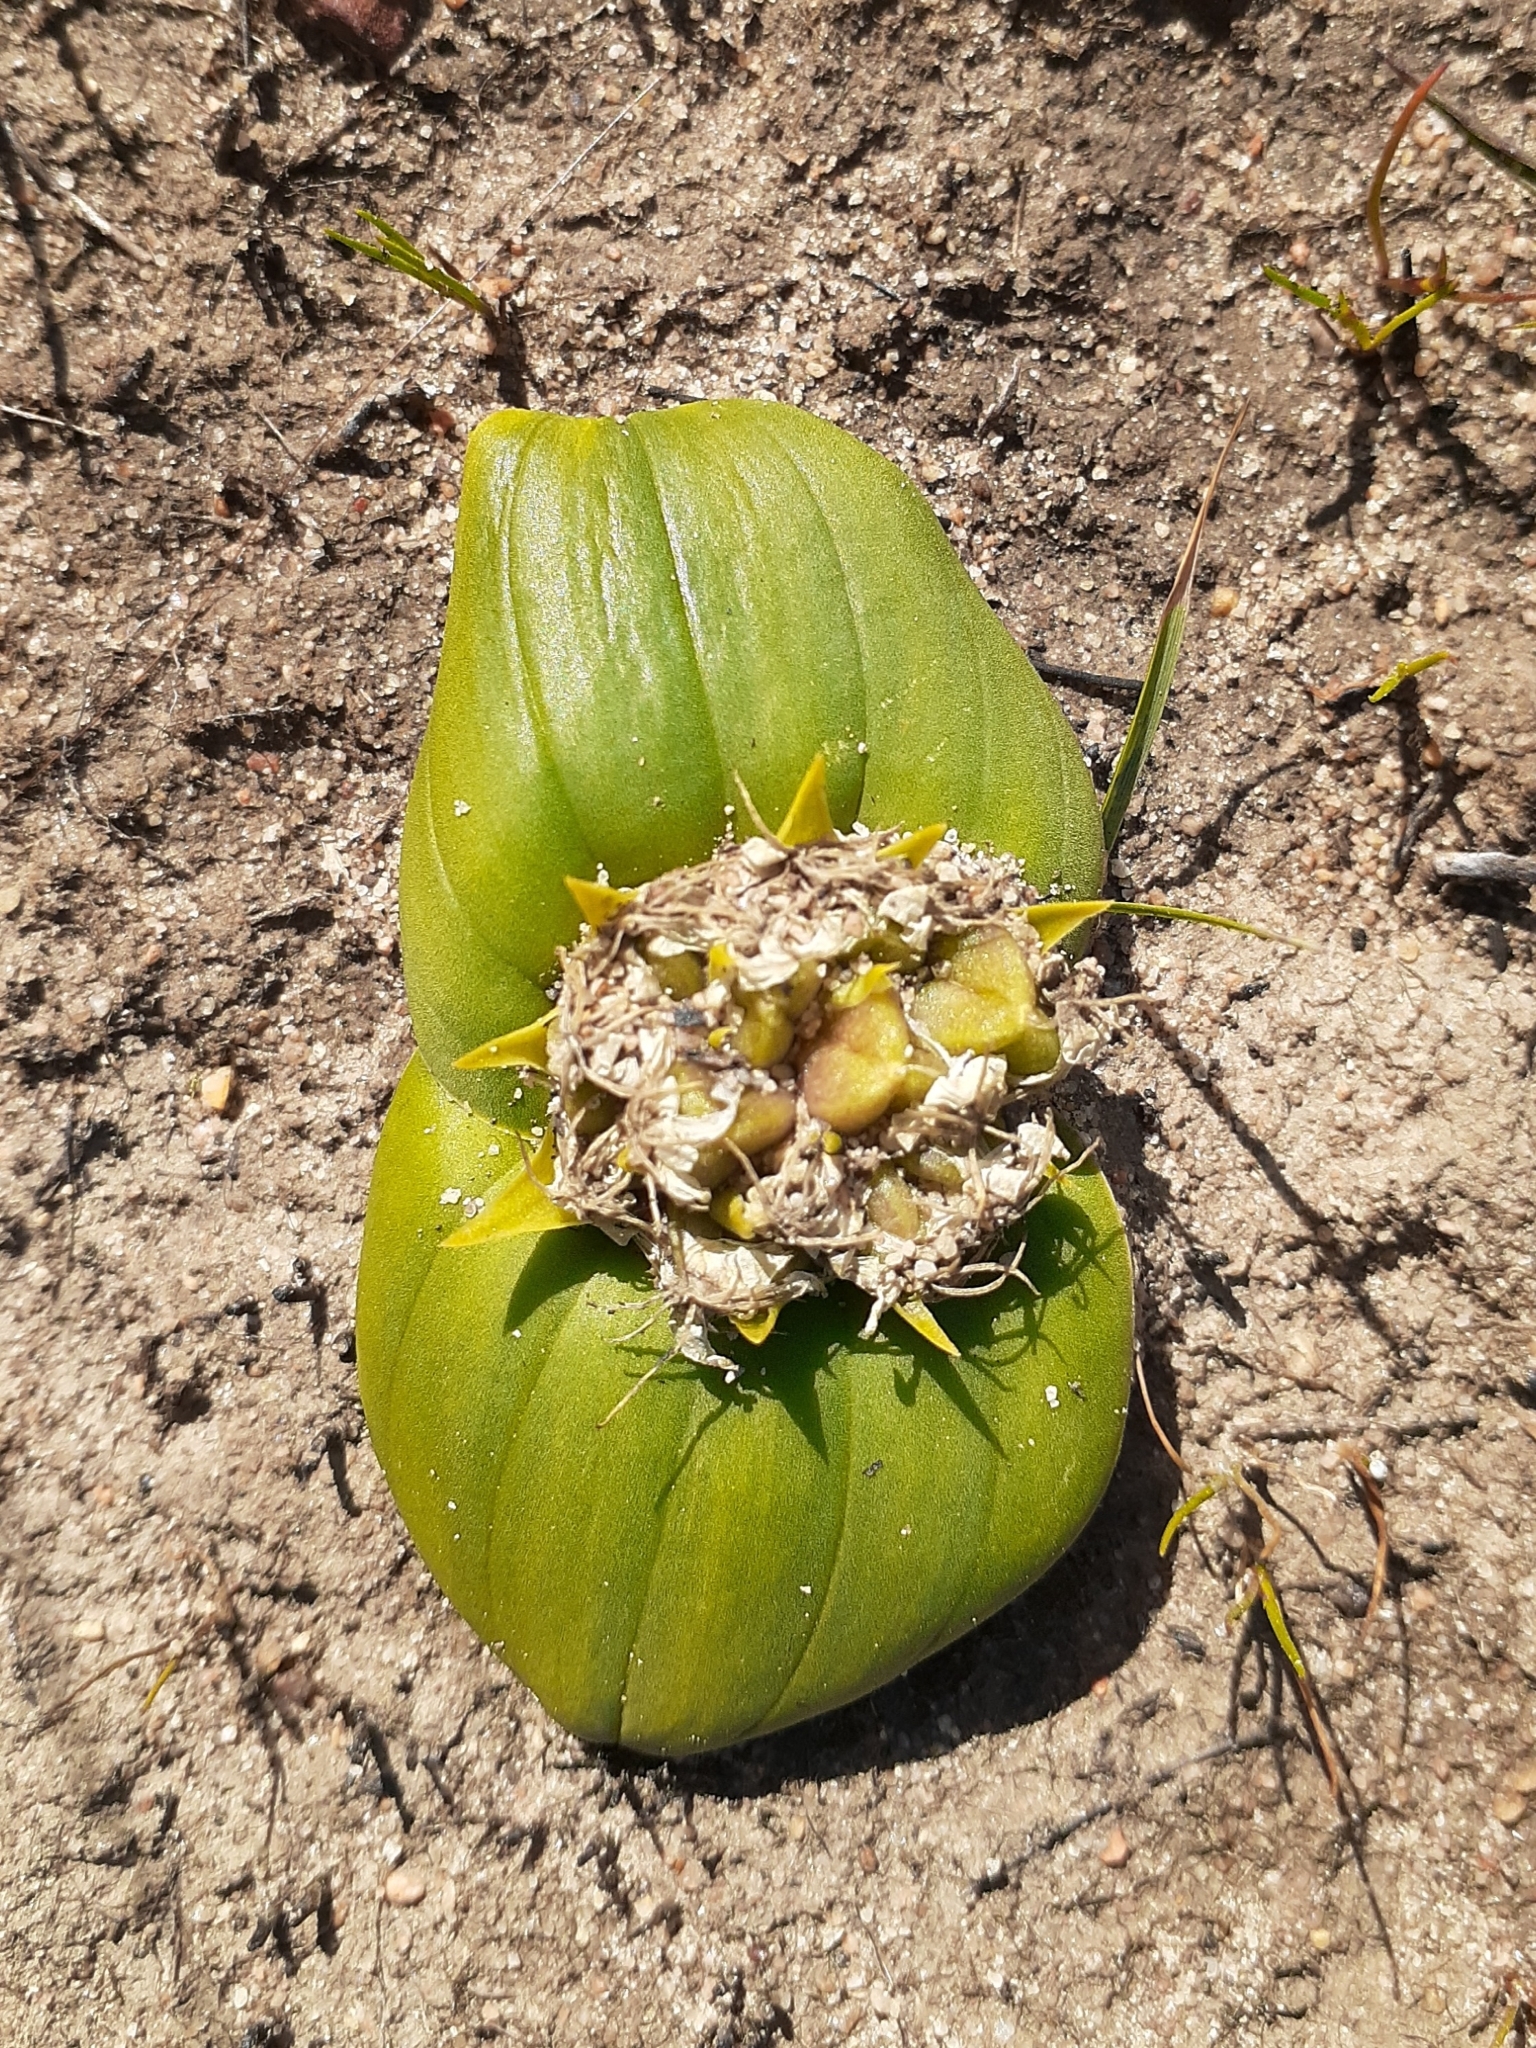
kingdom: Plantae
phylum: Tracheophyta
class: Liliopsida
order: Asparagales
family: Asparagaceae
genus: Massonia
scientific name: Massonia depressa
